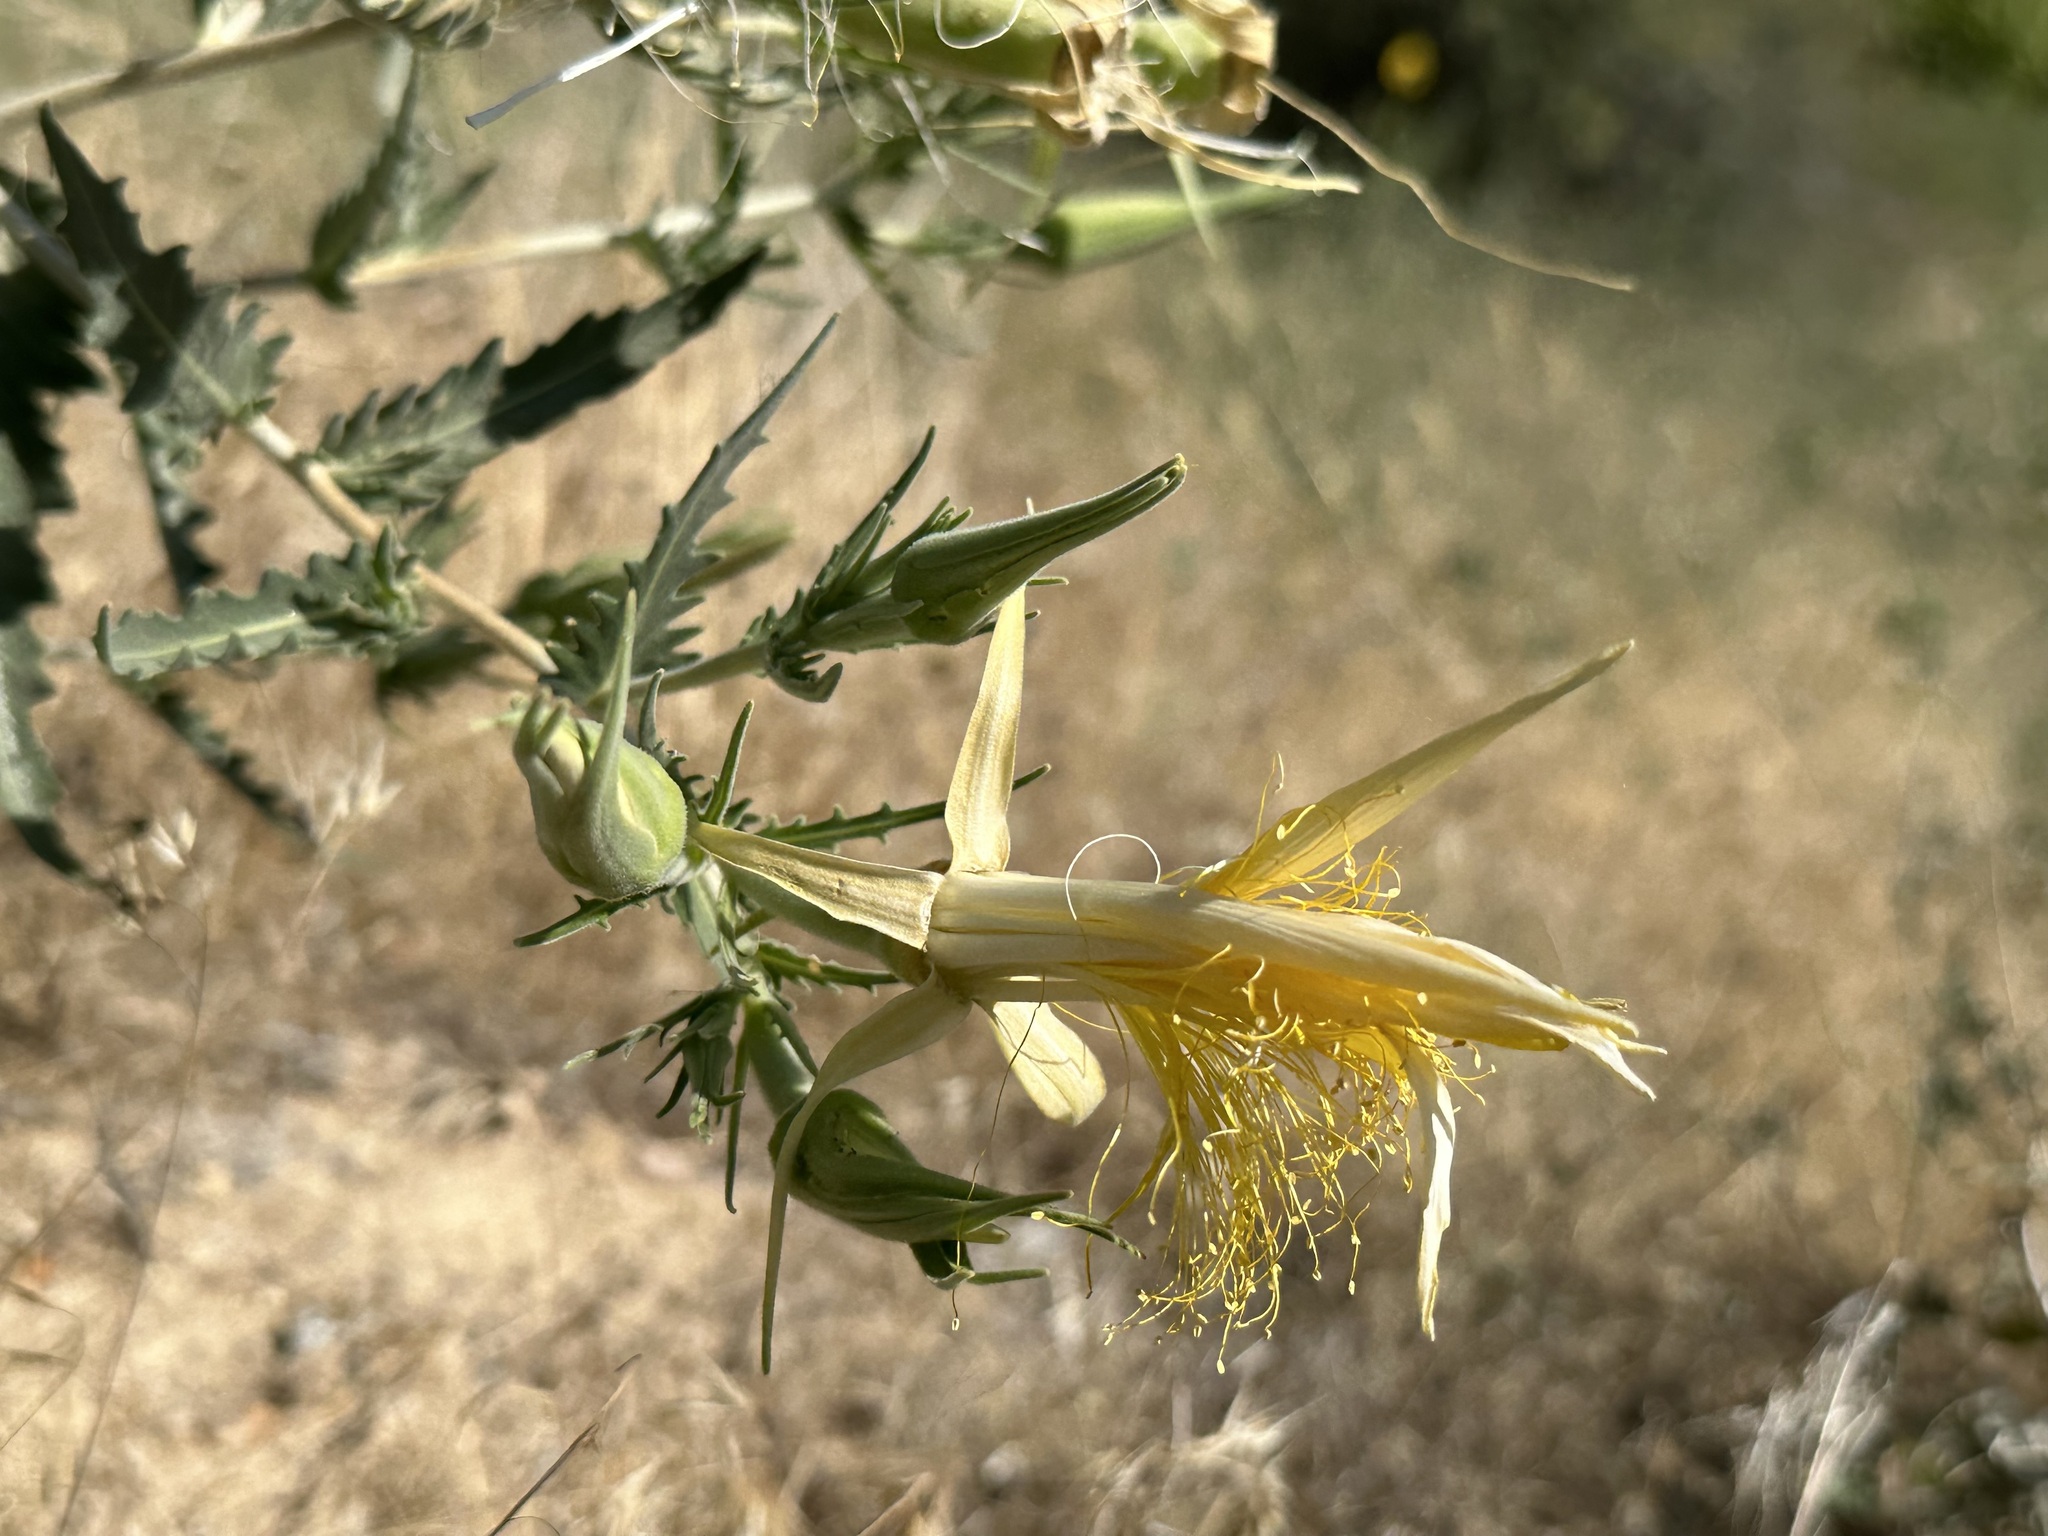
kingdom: Plantae
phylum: Tracheophyta
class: Magnoliopsida
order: Cornales
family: Loasaceae
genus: Mentzelia
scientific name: Mentzelia laevicaulis
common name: Smooth-stem blazingstar
